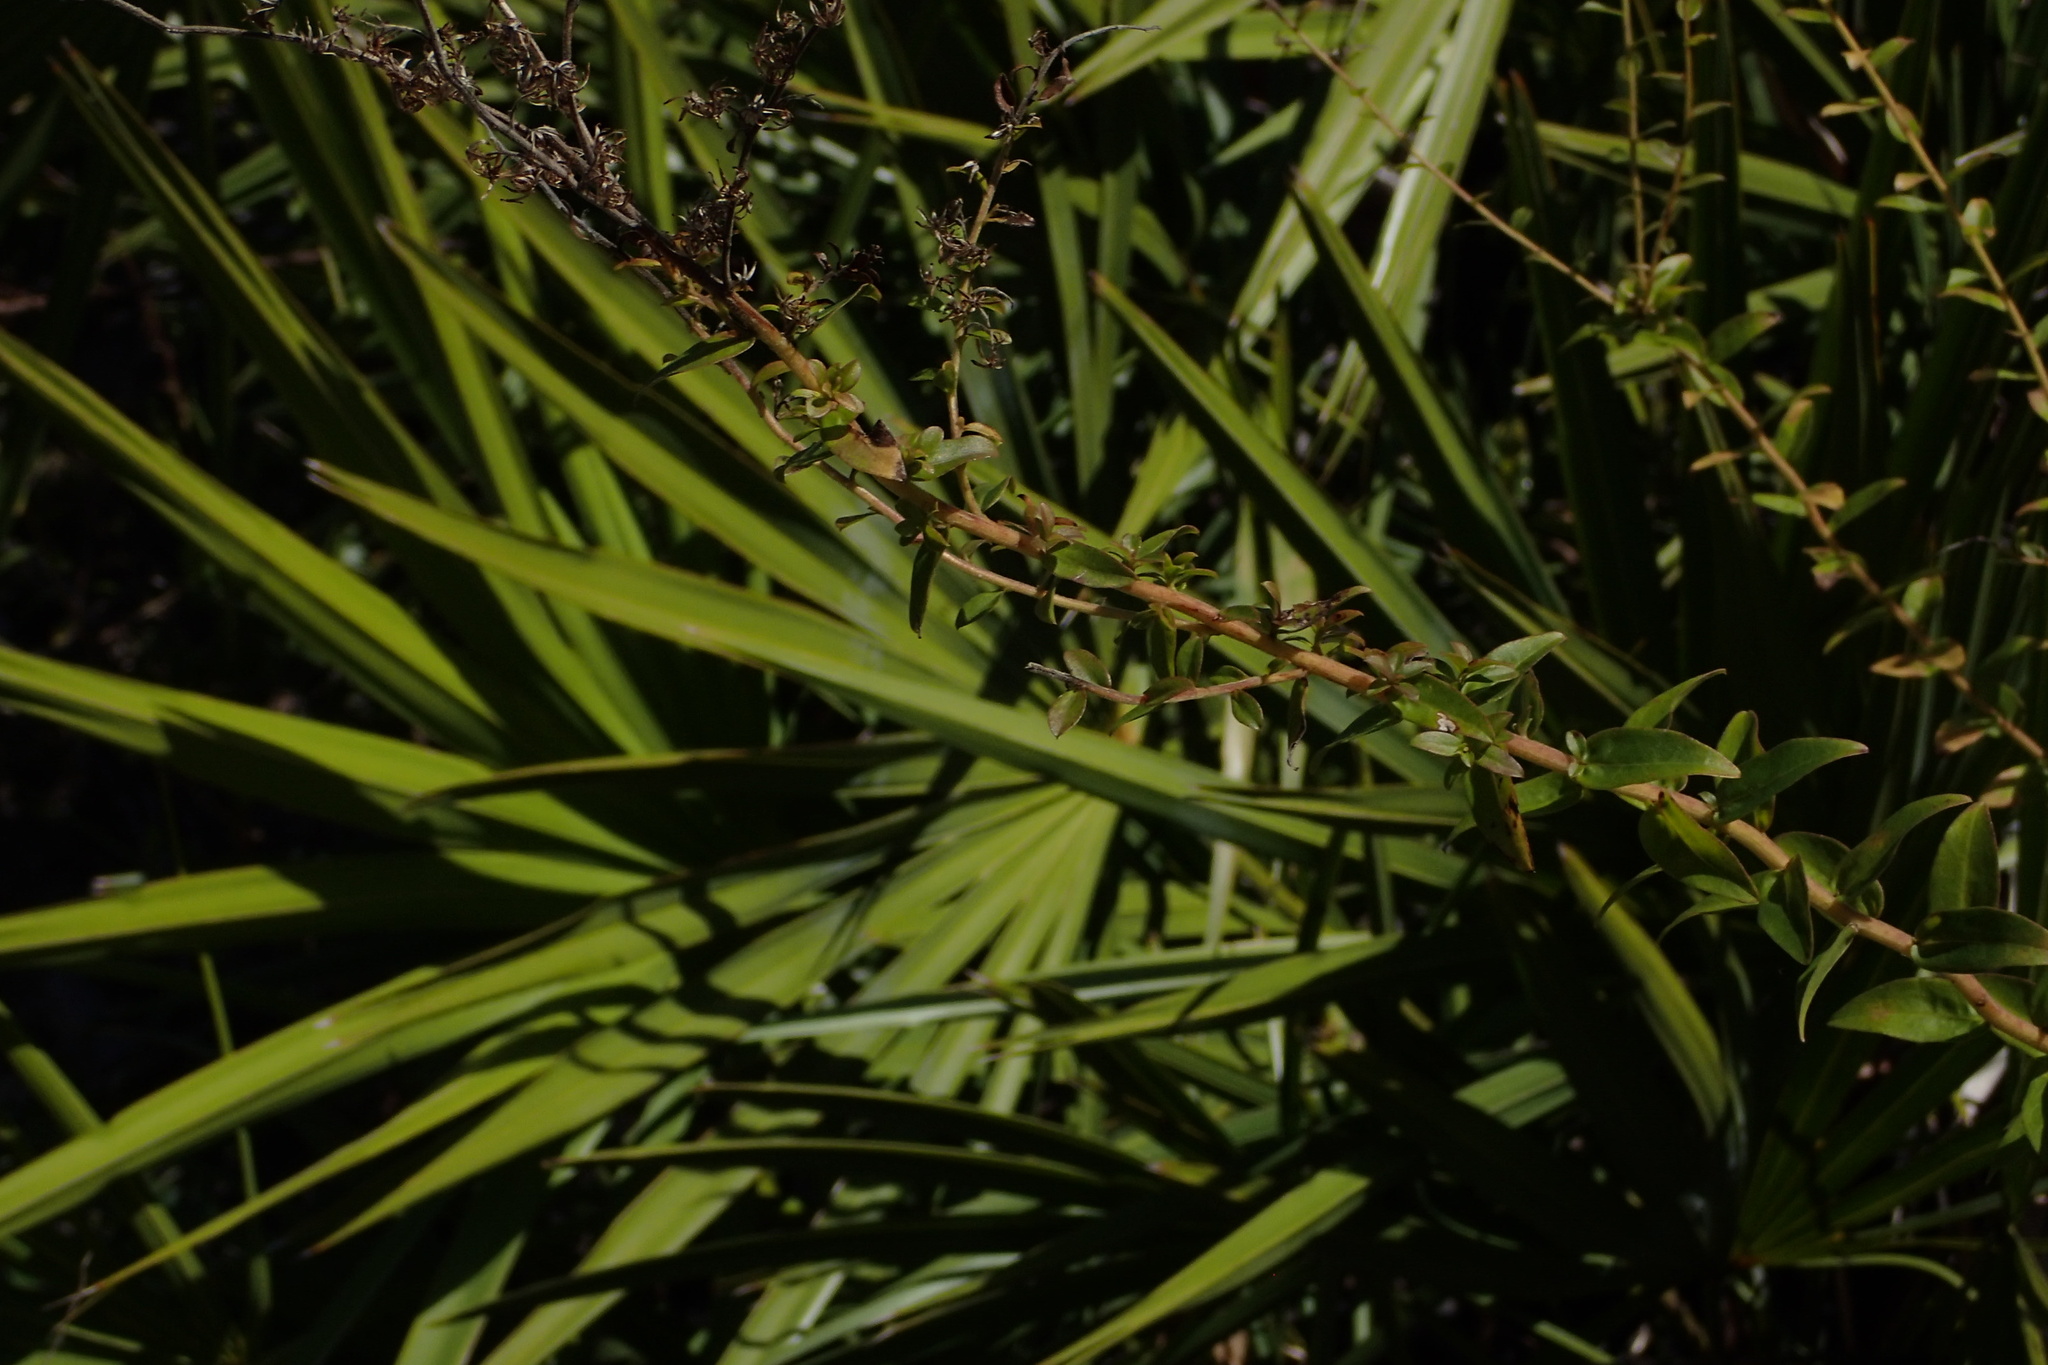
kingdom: Plantae
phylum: Tracheophyta
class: Magnoliopsida
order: Asterales
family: Asteraceae
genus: Solidago
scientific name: Solidago chapmanii
